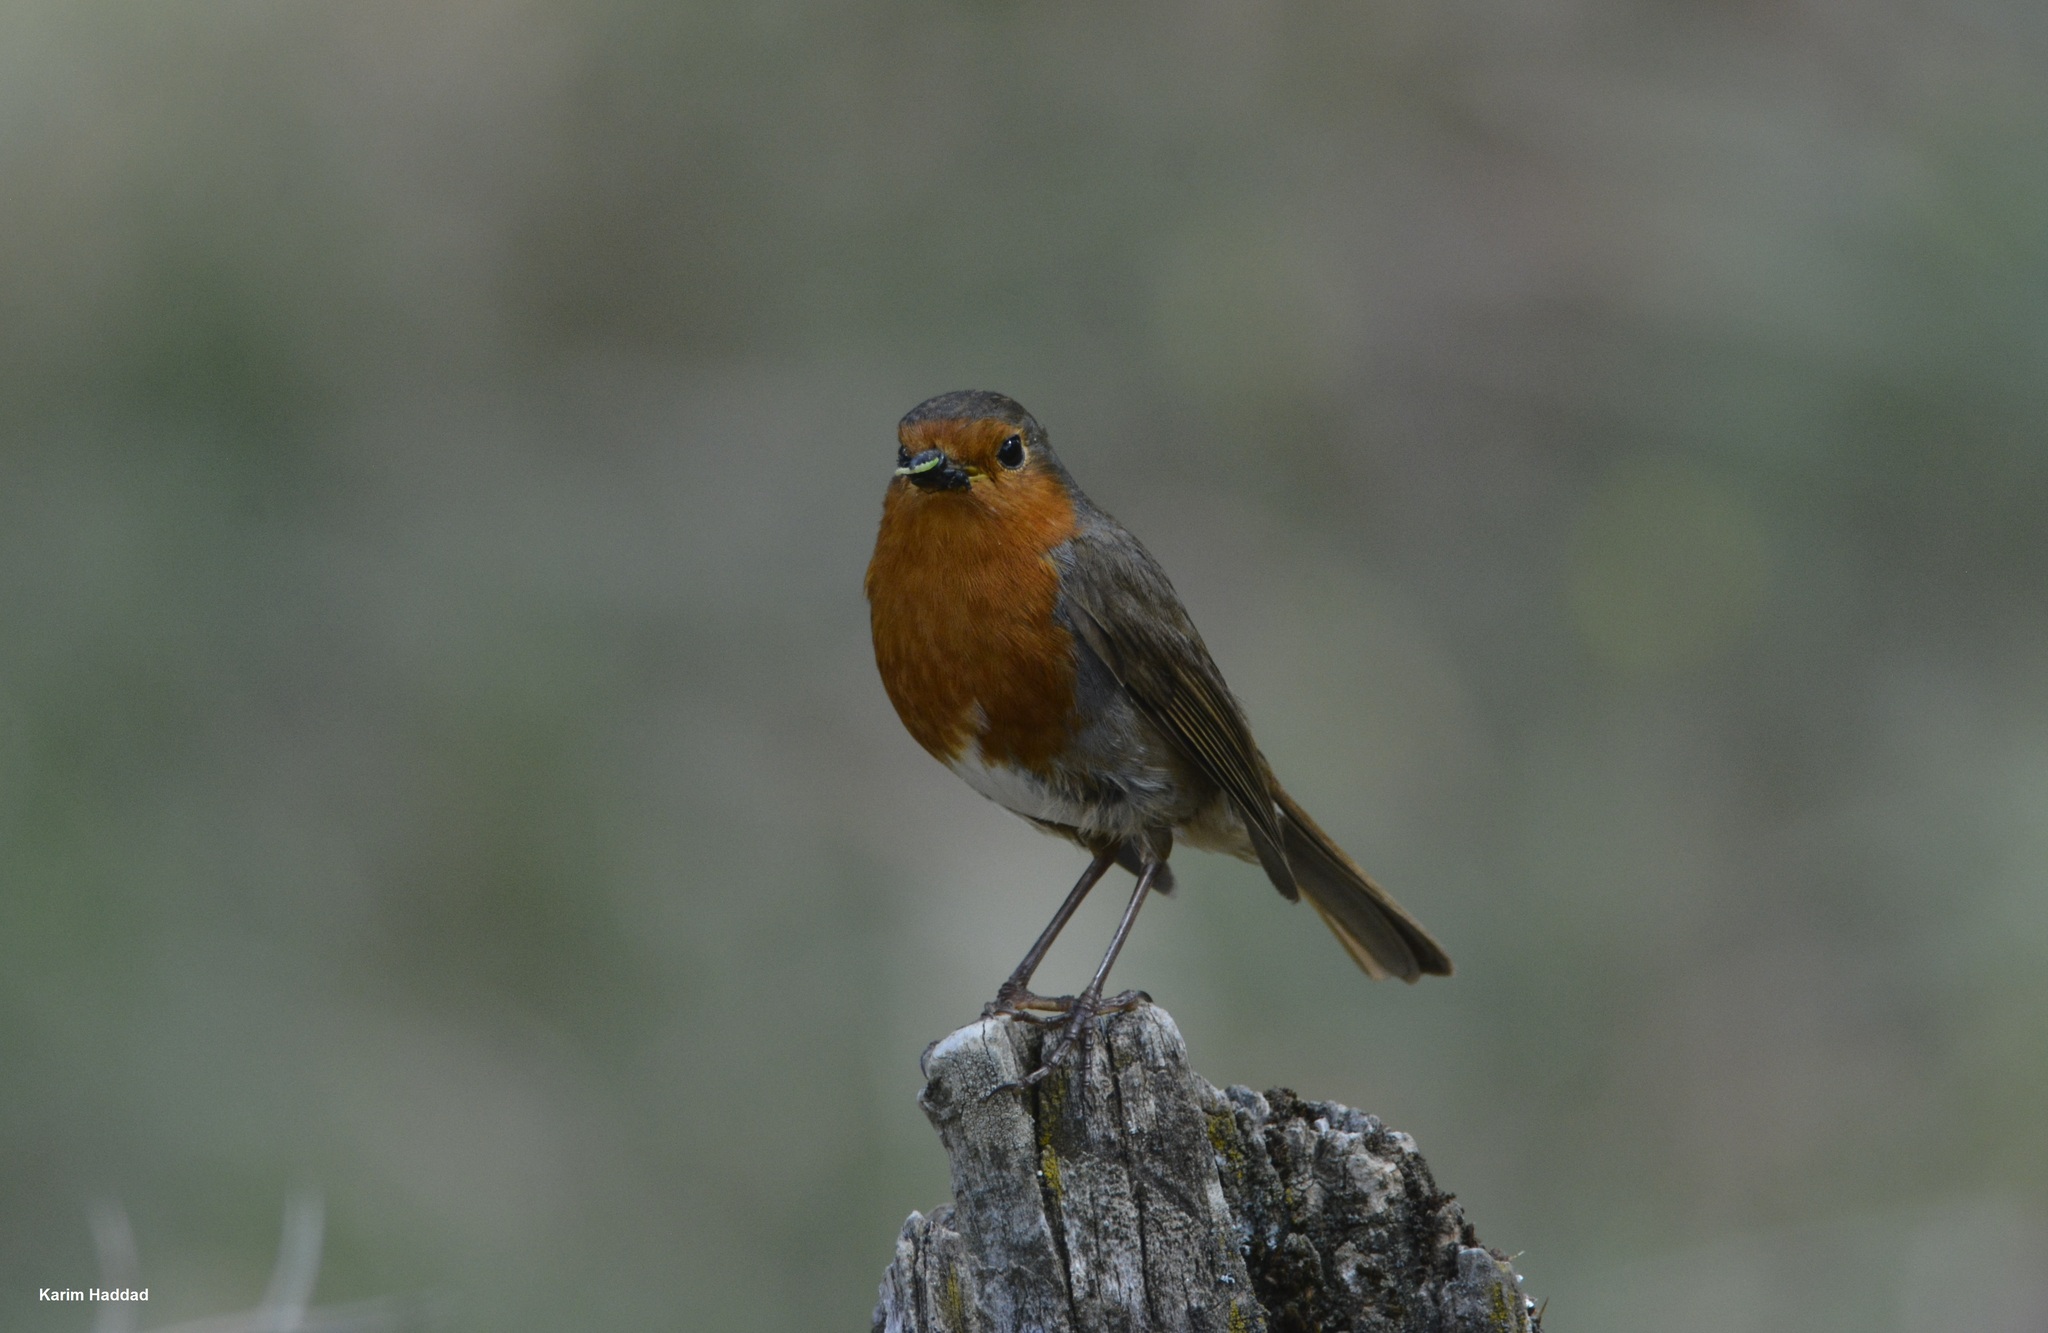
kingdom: Animalia
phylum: Chordata
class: Aves
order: Passeriformes
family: Muscicapidae
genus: Erithacus
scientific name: Erithacus rubecula
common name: European robin
